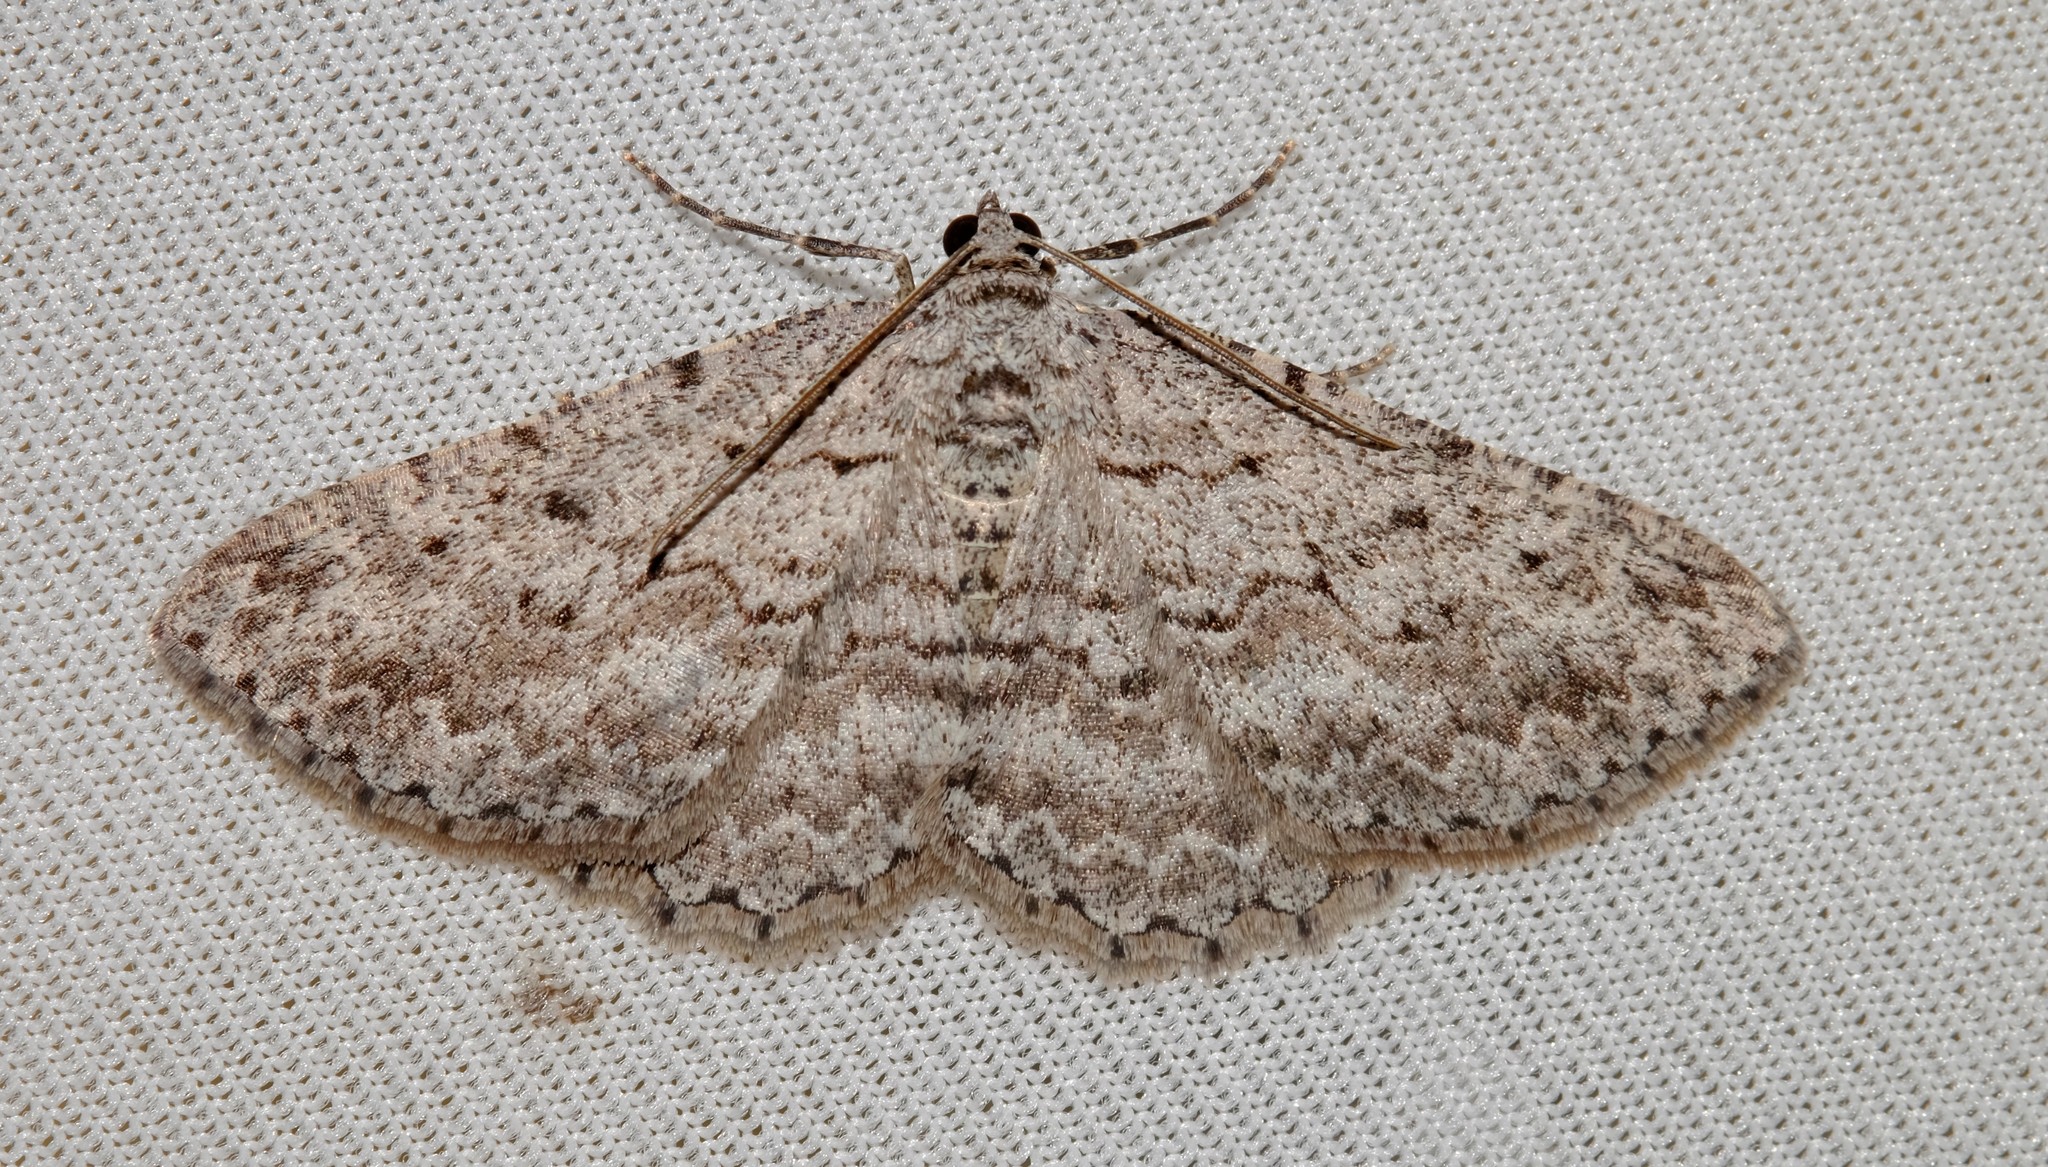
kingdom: Animalia
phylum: Arthropoda
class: Insecta
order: Lepidoptera
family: Geometridae
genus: Psilosticha
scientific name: Psilosticha absorpta
